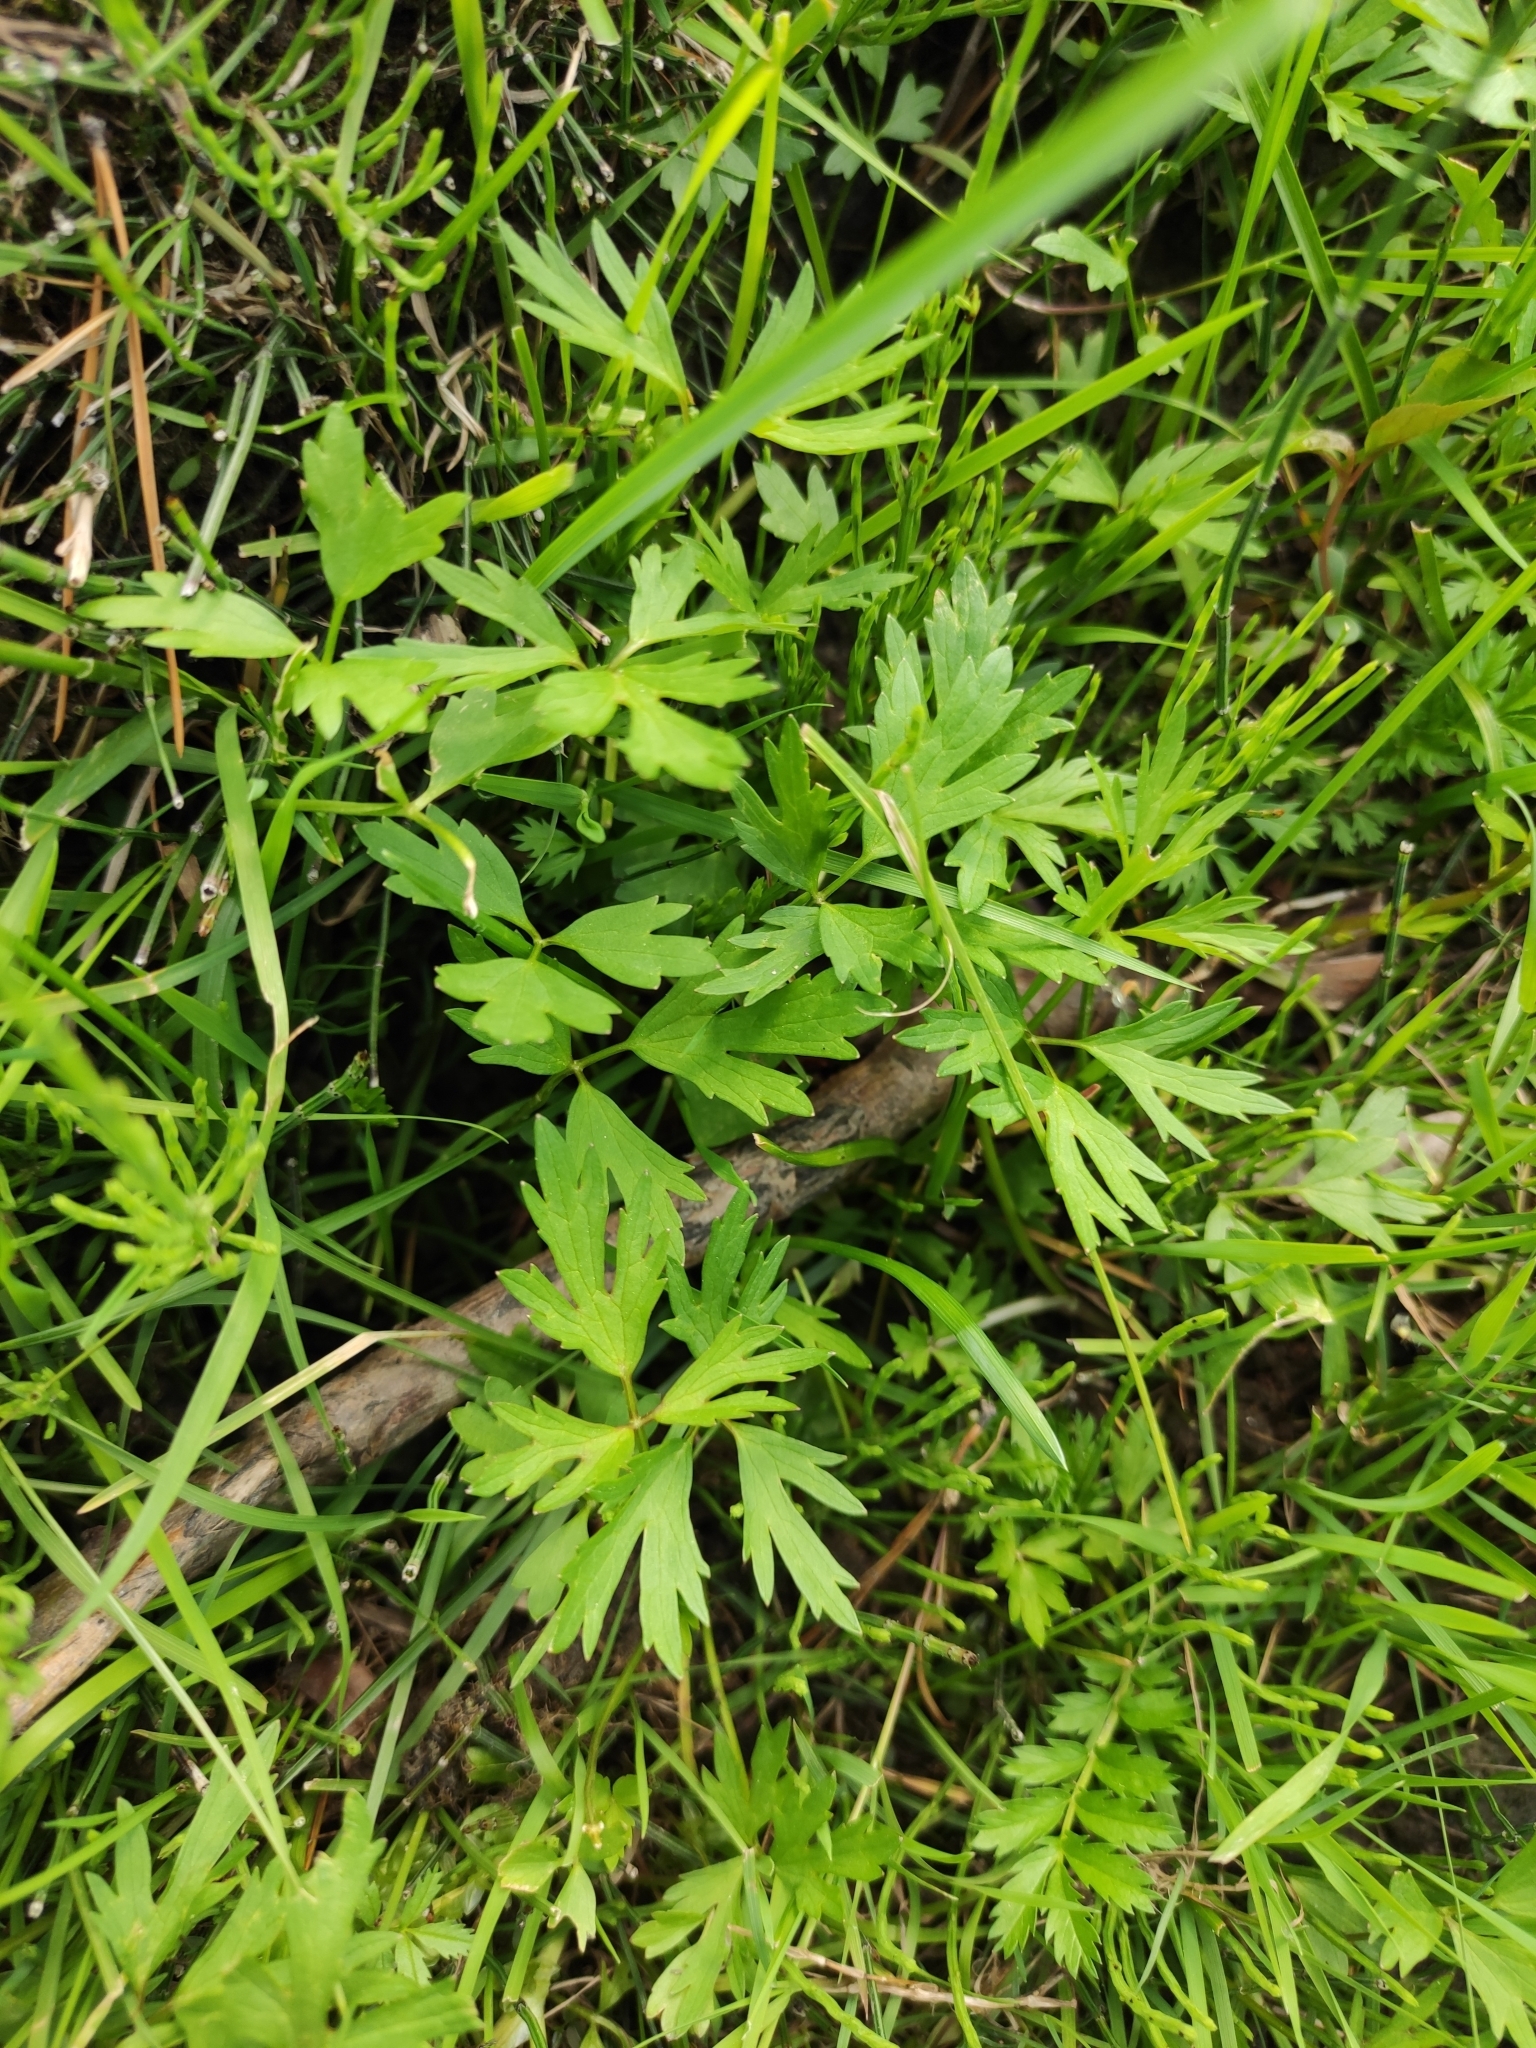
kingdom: Plantae
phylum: Tracheophyta
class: Magnoliopsida
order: Ranunculales
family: Ranunculaceae
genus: Ranunculus
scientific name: Ranunculus repens
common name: Creeping buttercup
